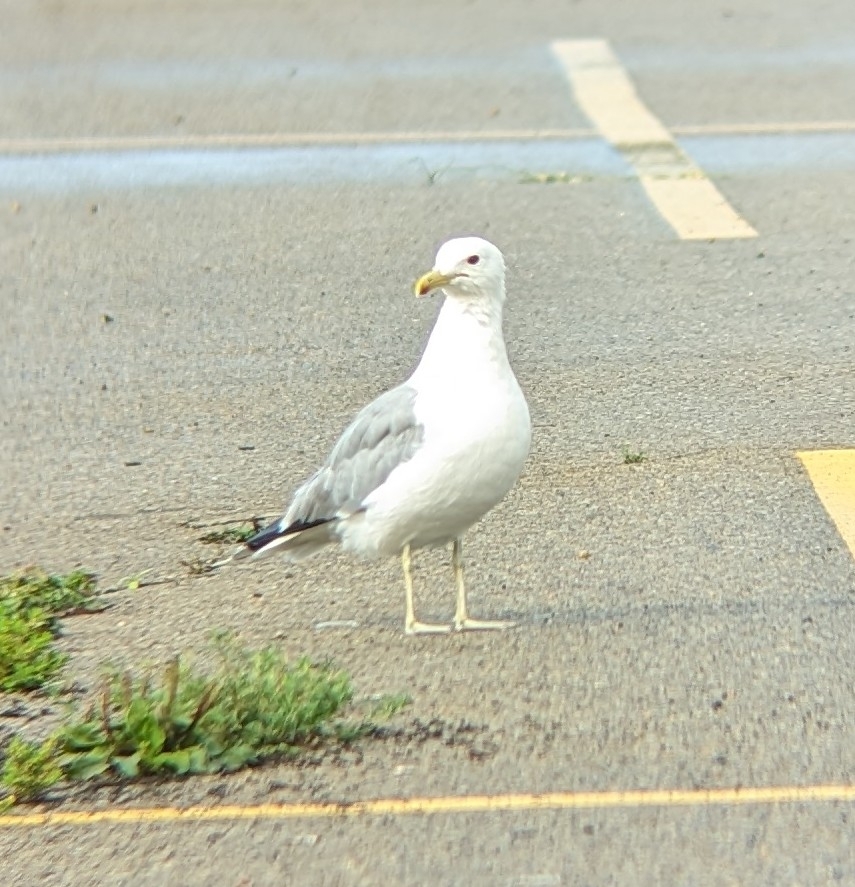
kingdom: Animalia
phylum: Chordata
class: Aves
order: Charadriiformes
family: Laridae
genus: Larus
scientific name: Larus californicus
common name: California gull
